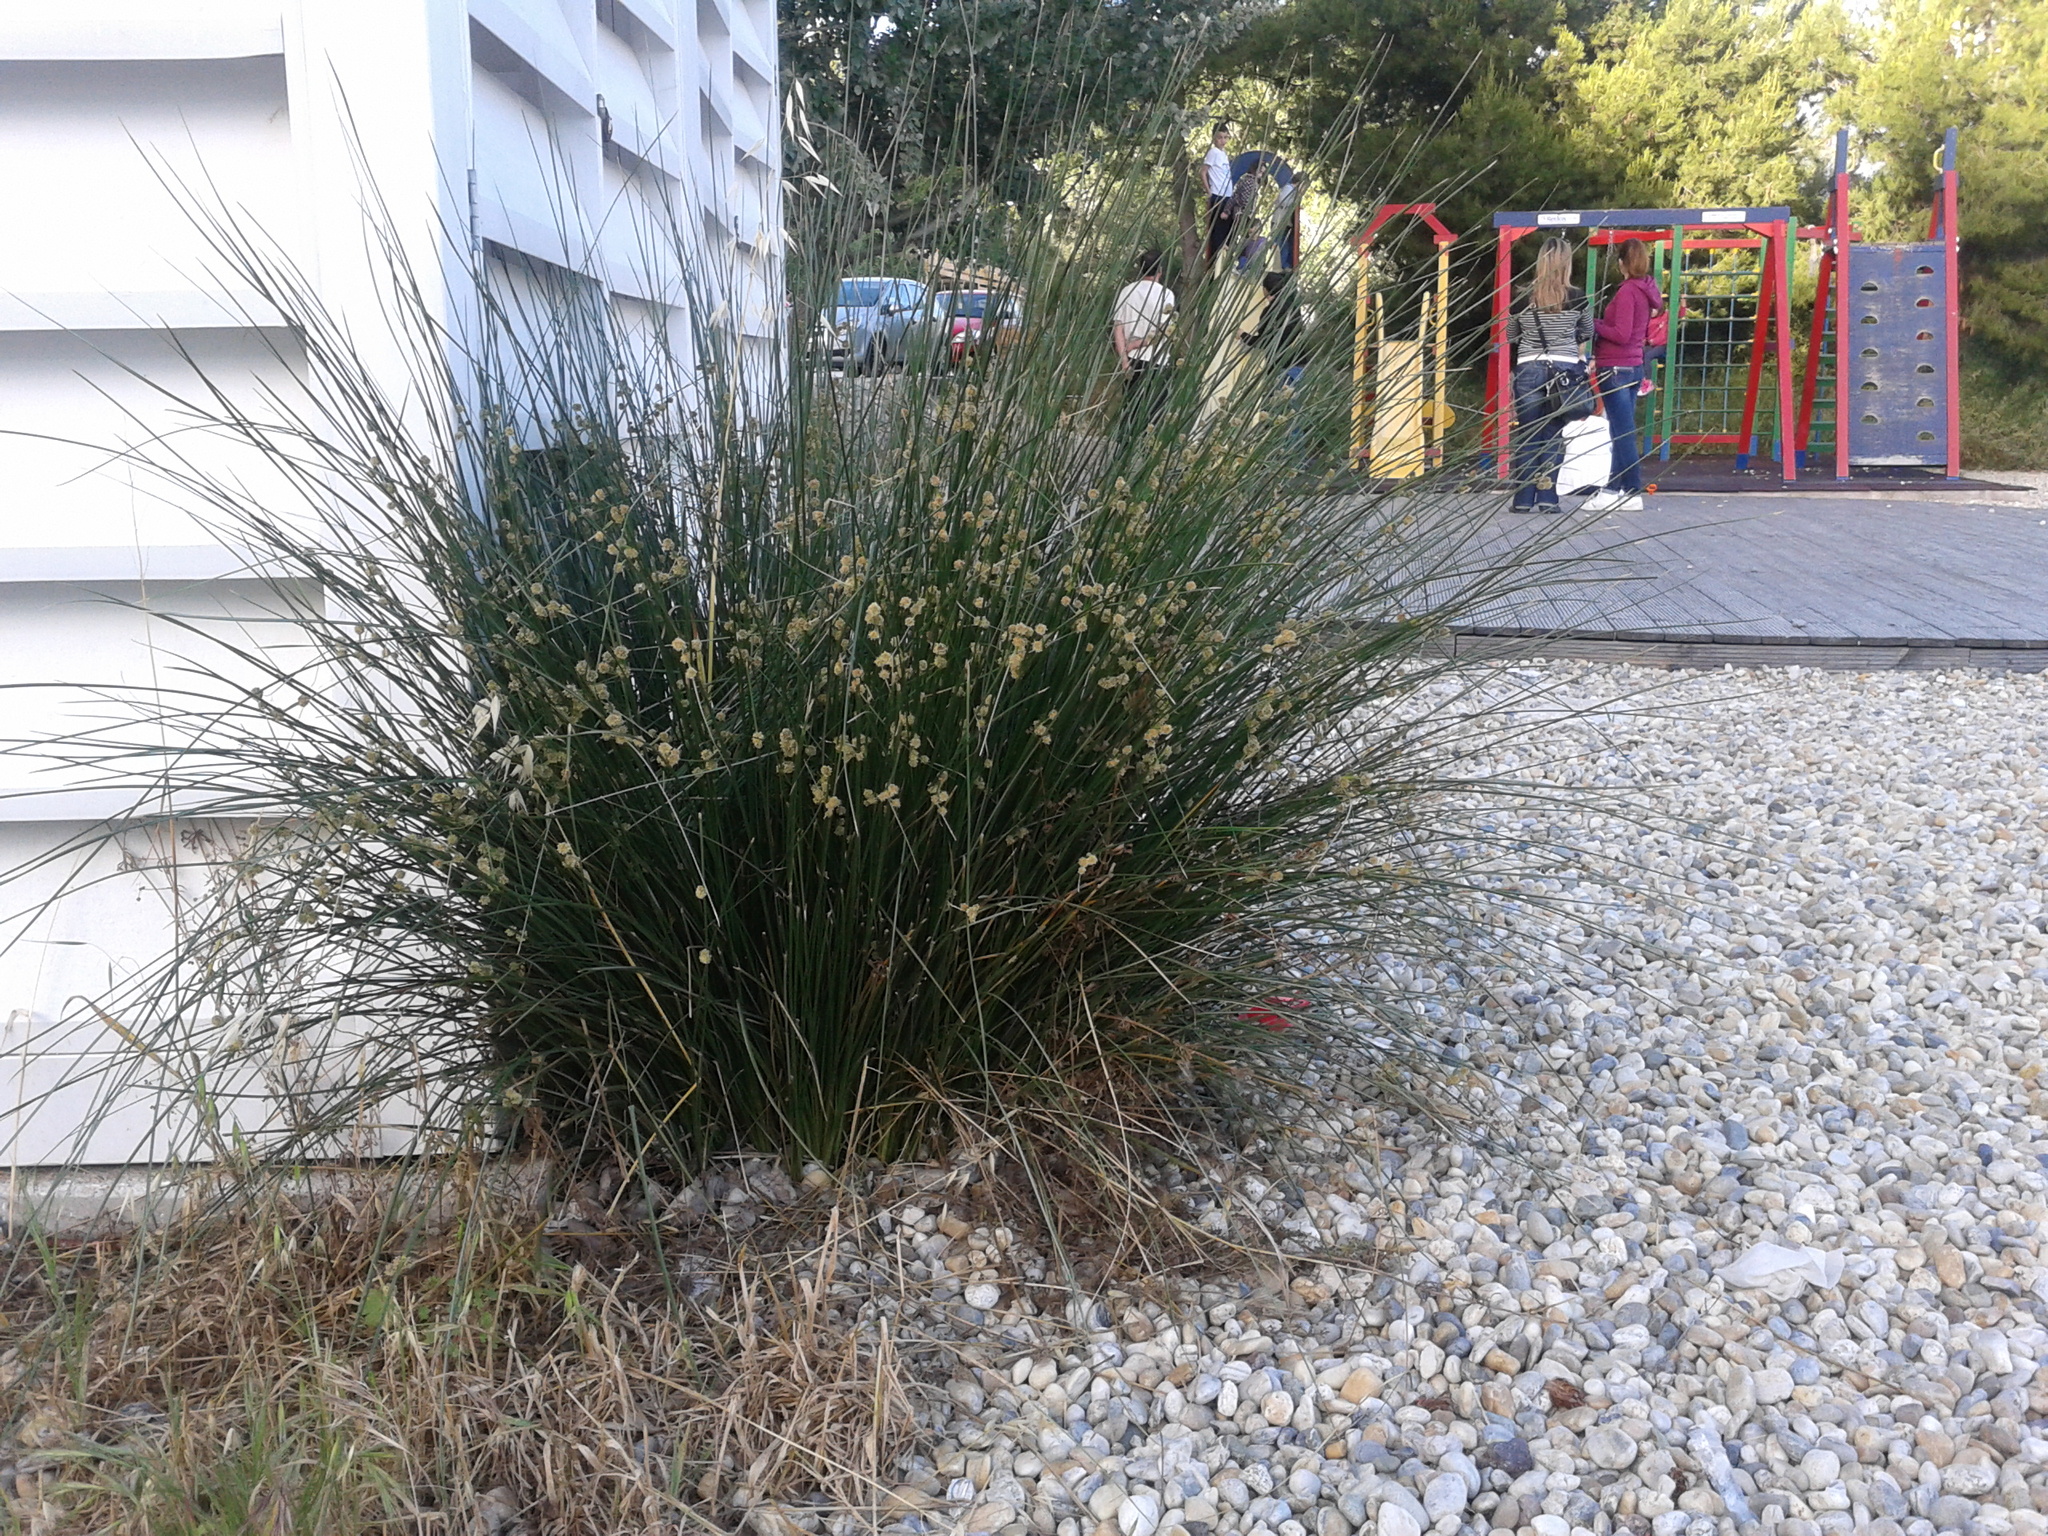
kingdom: Plantae
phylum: Tracheophyta
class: Liliopsida
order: Poales
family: Cyperaceae
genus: Scirpoides
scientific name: Scirpoides holoschoenus
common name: Round-headed club-rush
